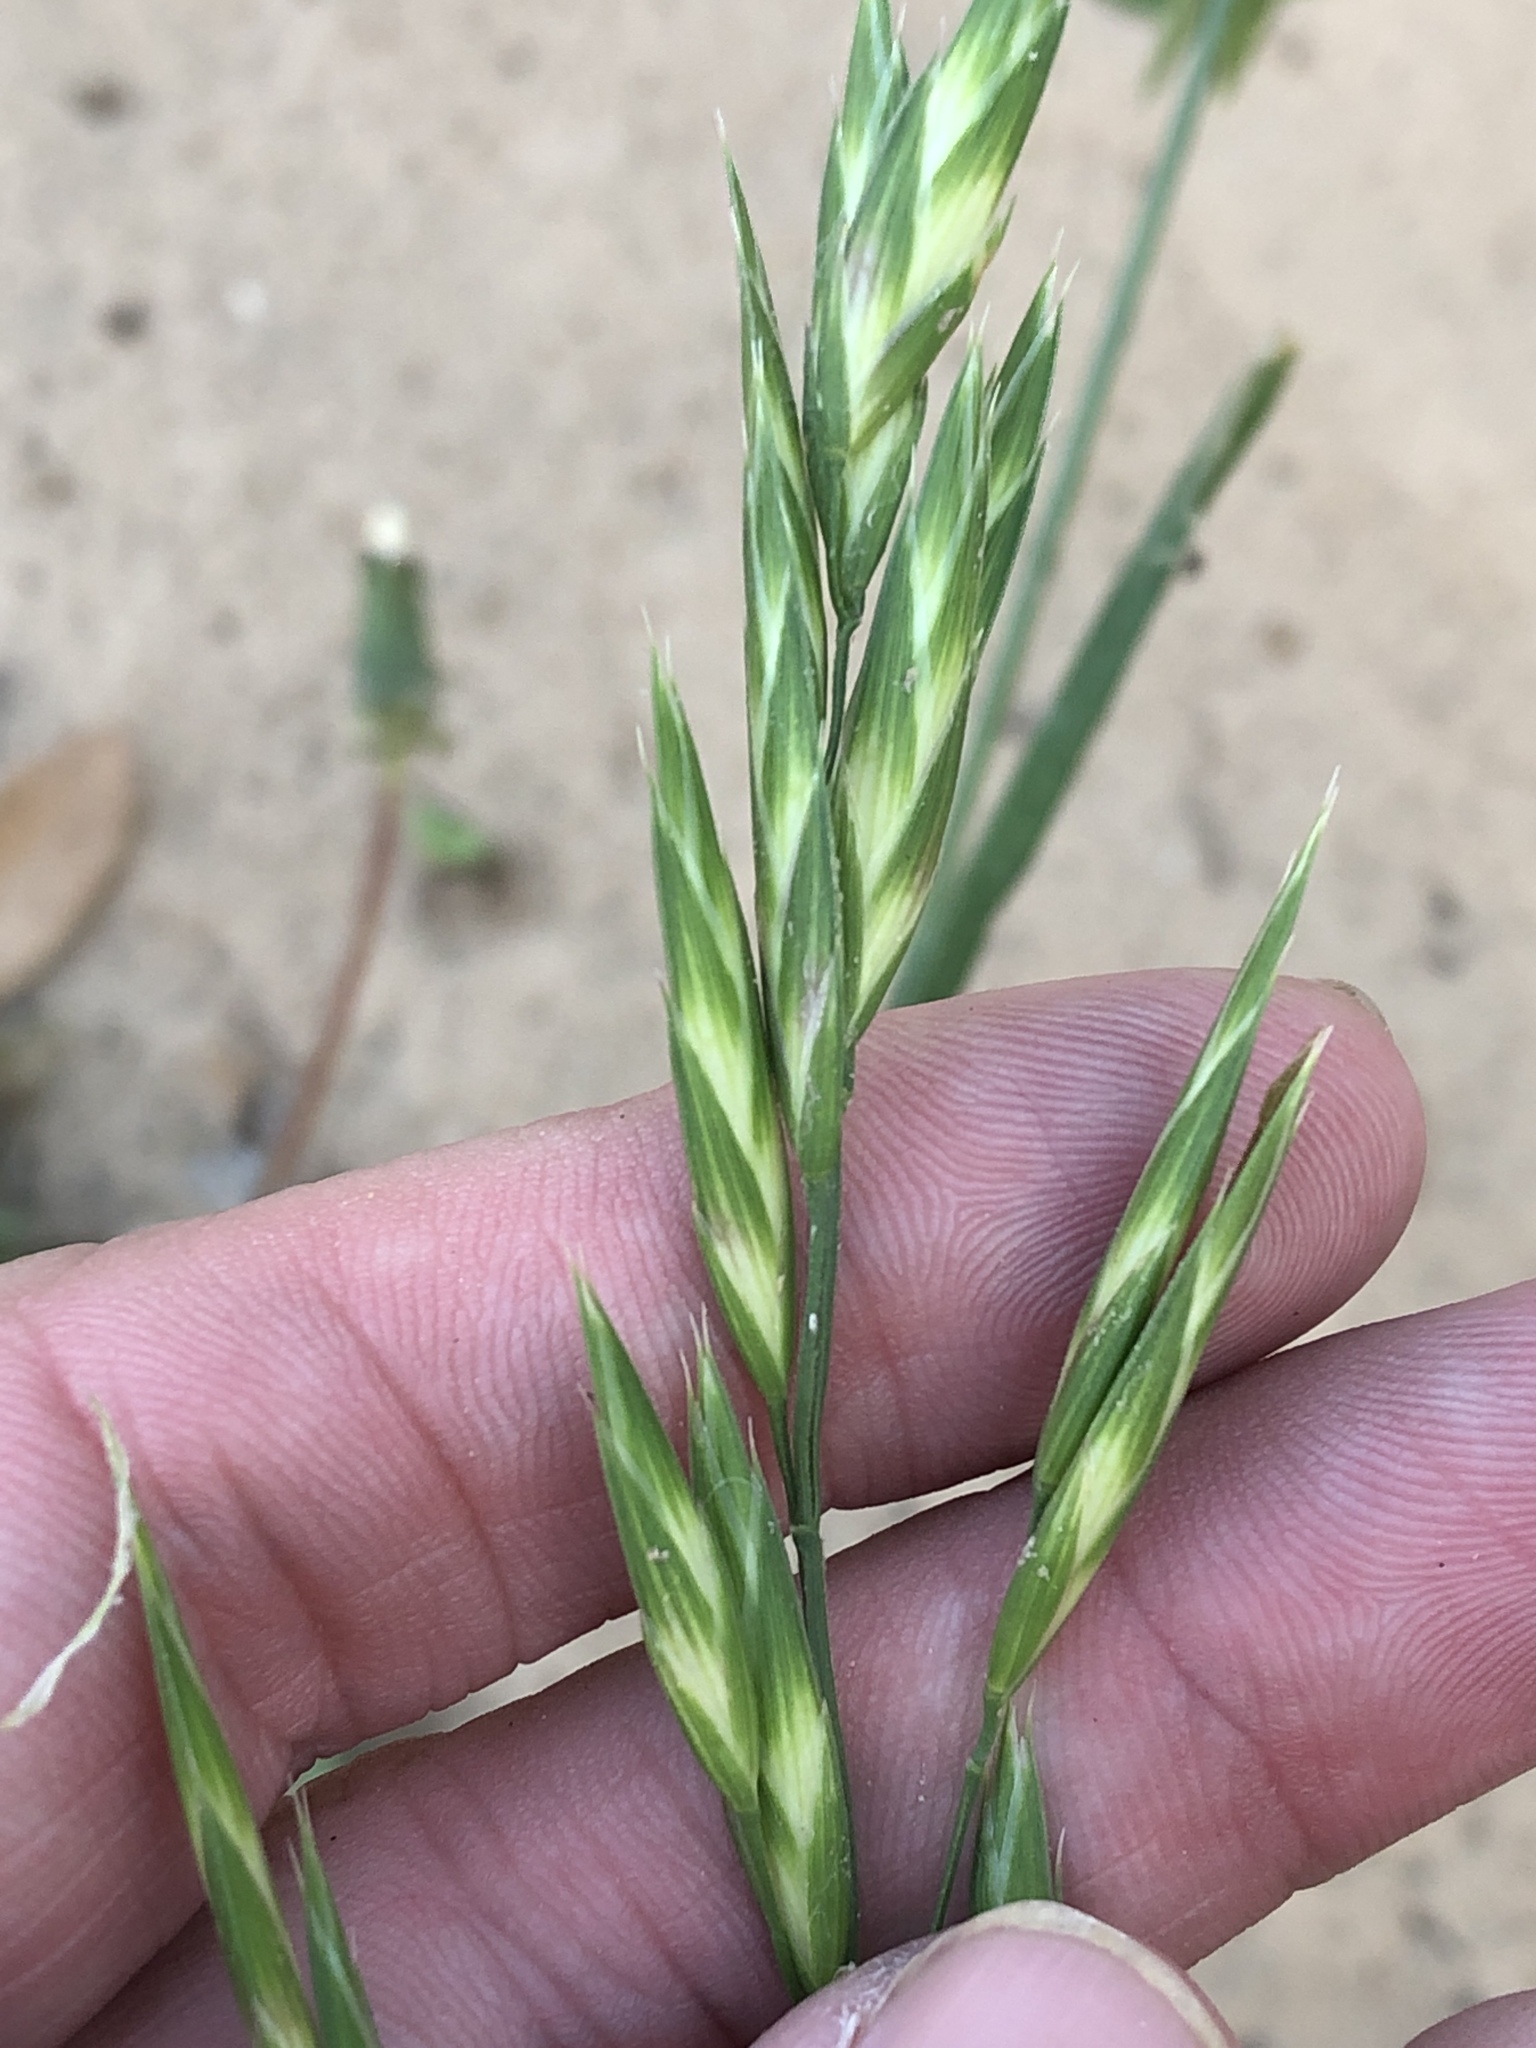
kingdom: Plantae
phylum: Tracheophyta
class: Liliopsida
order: Poales
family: Poaceae
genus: Bromus
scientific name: Bromus catharticus
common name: Rescuegrass
